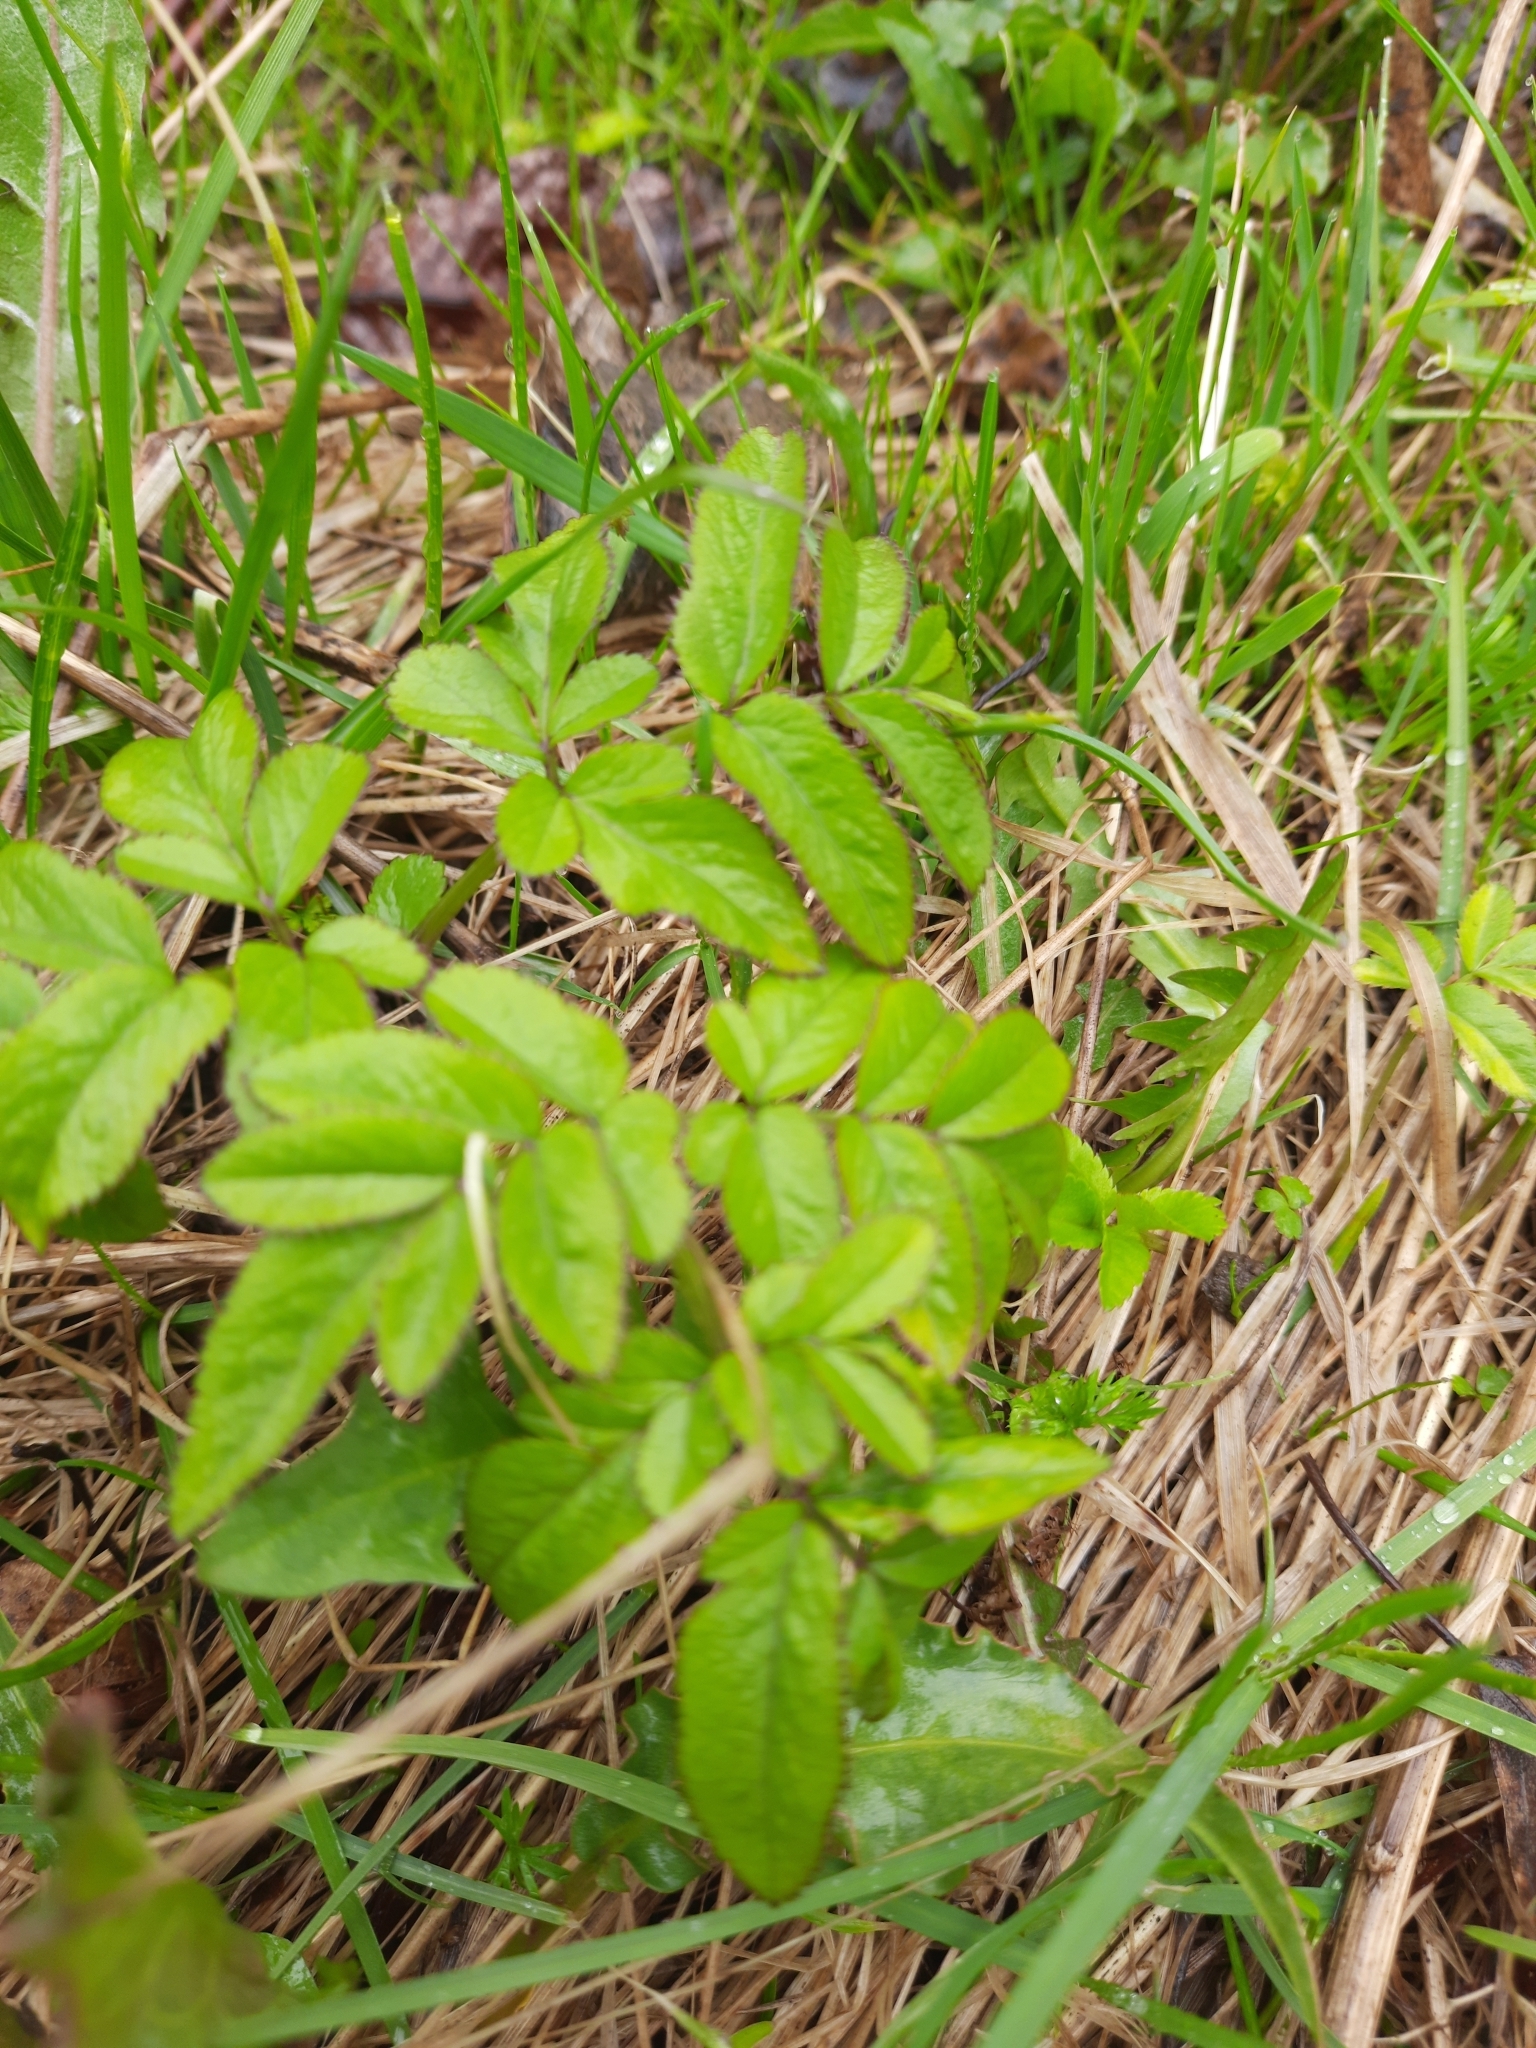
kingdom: Plantae
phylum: Tracheophyta
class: Magnoliopsida
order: Apiales
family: Apiaceae
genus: Angelica
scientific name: Angelica sylvestris
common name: Wild angelica
